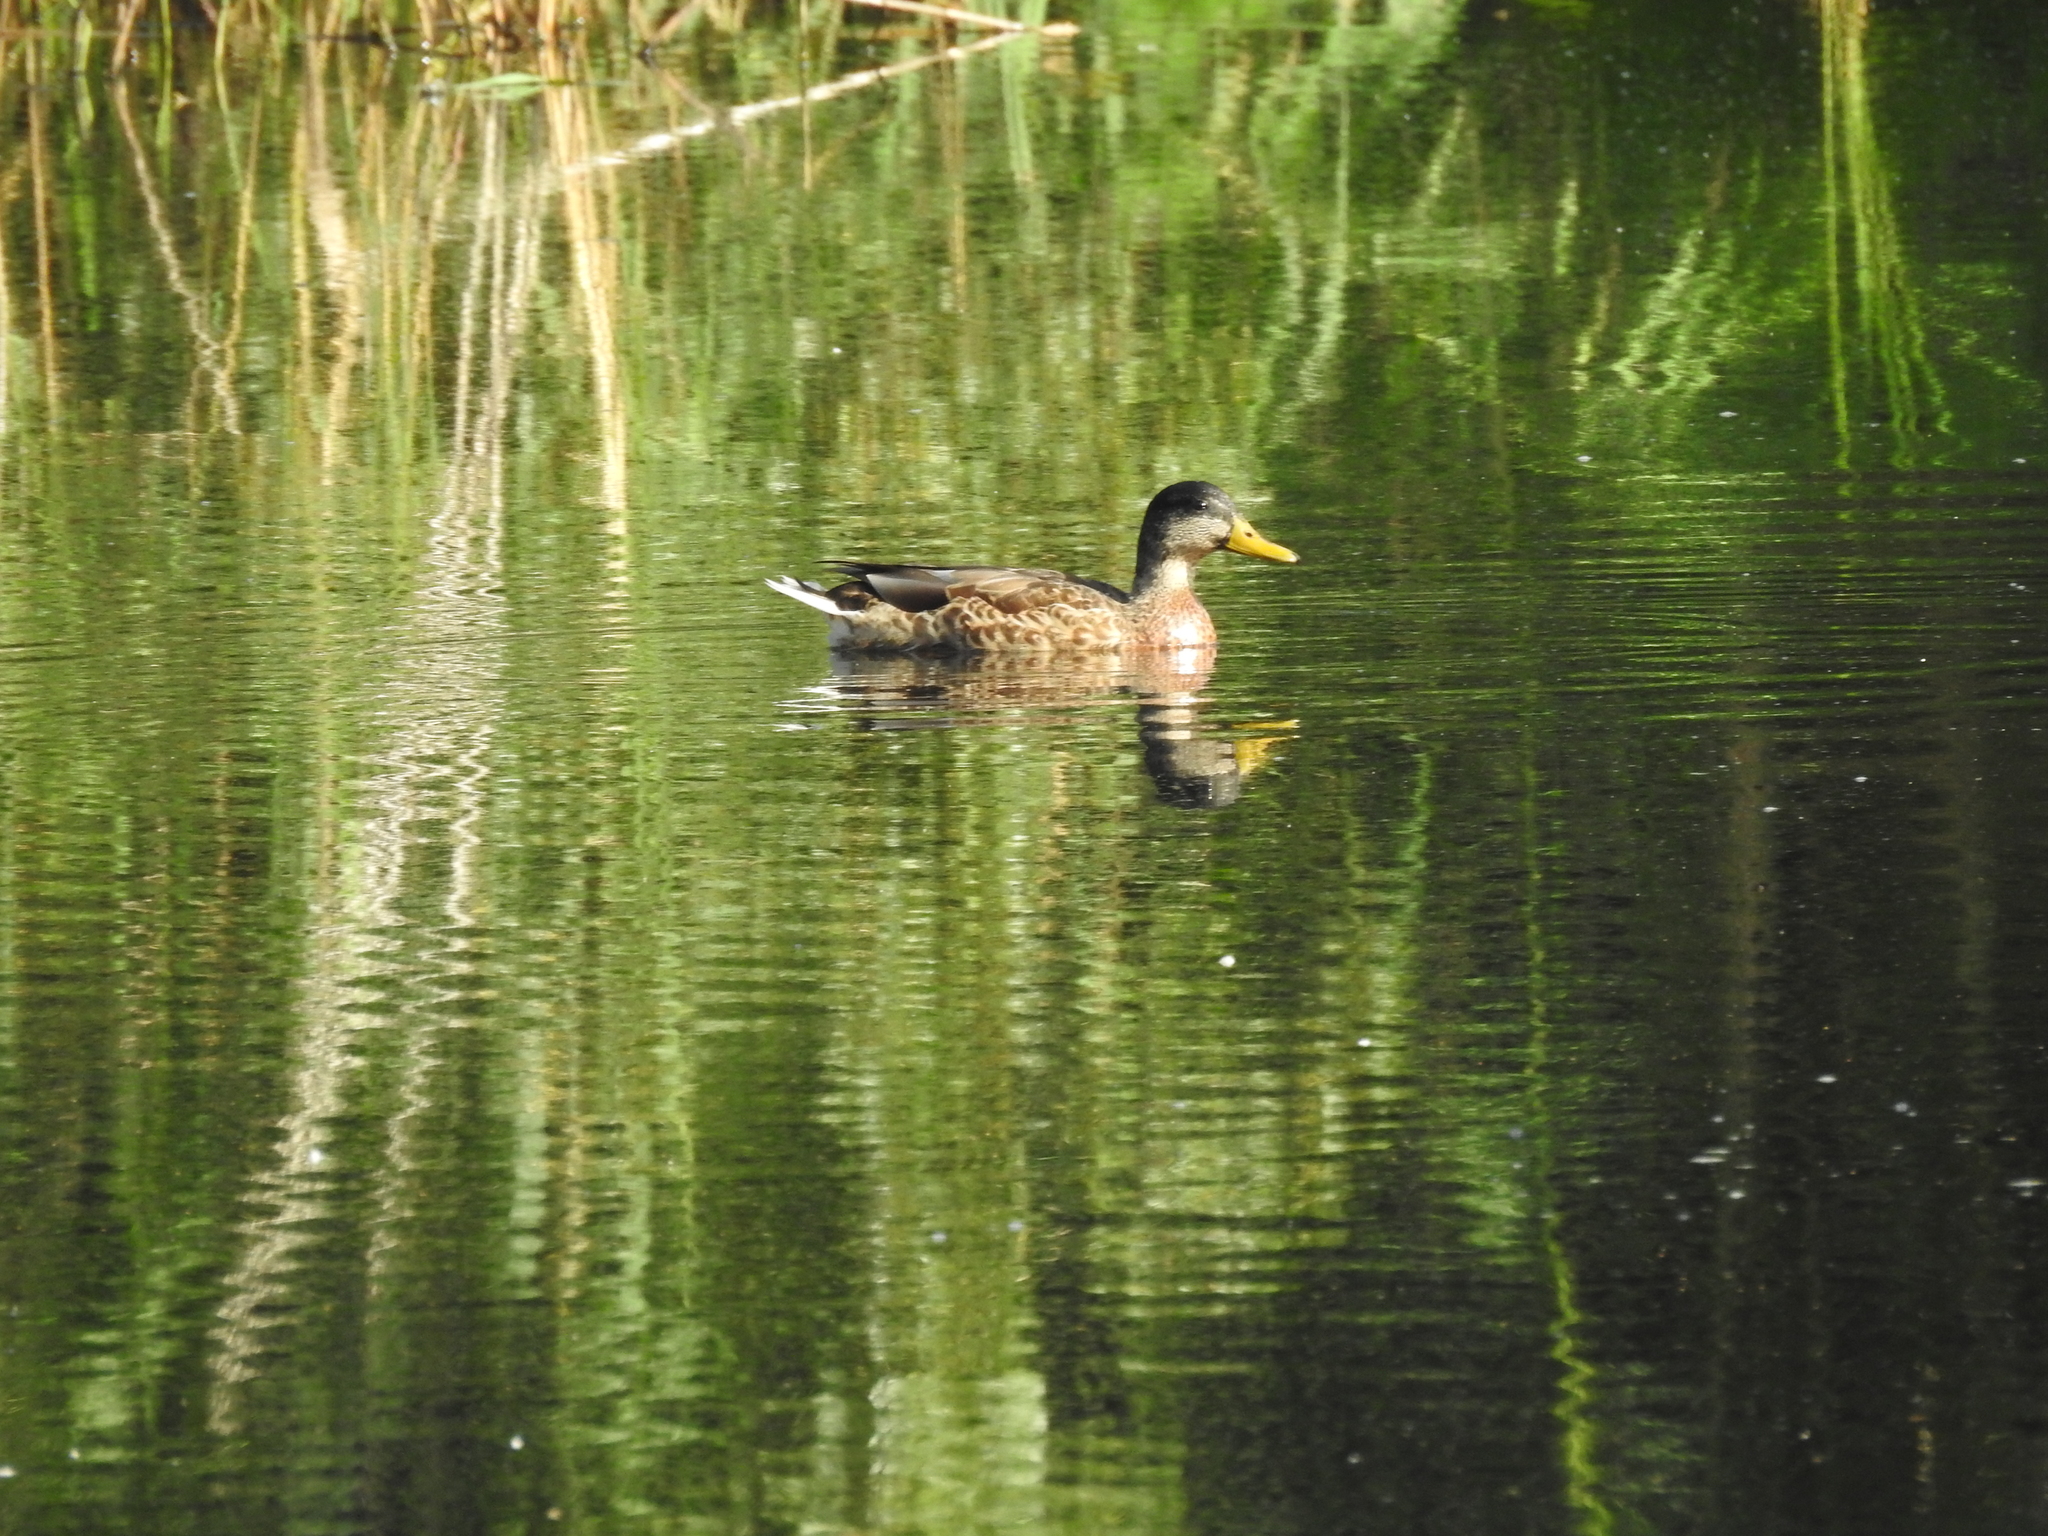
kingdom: Animalia
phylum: Chordata
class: Aves
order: Anseriformes
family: Anatidae
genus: Anas
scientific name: Anas platyrhynchos
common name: Mallard
